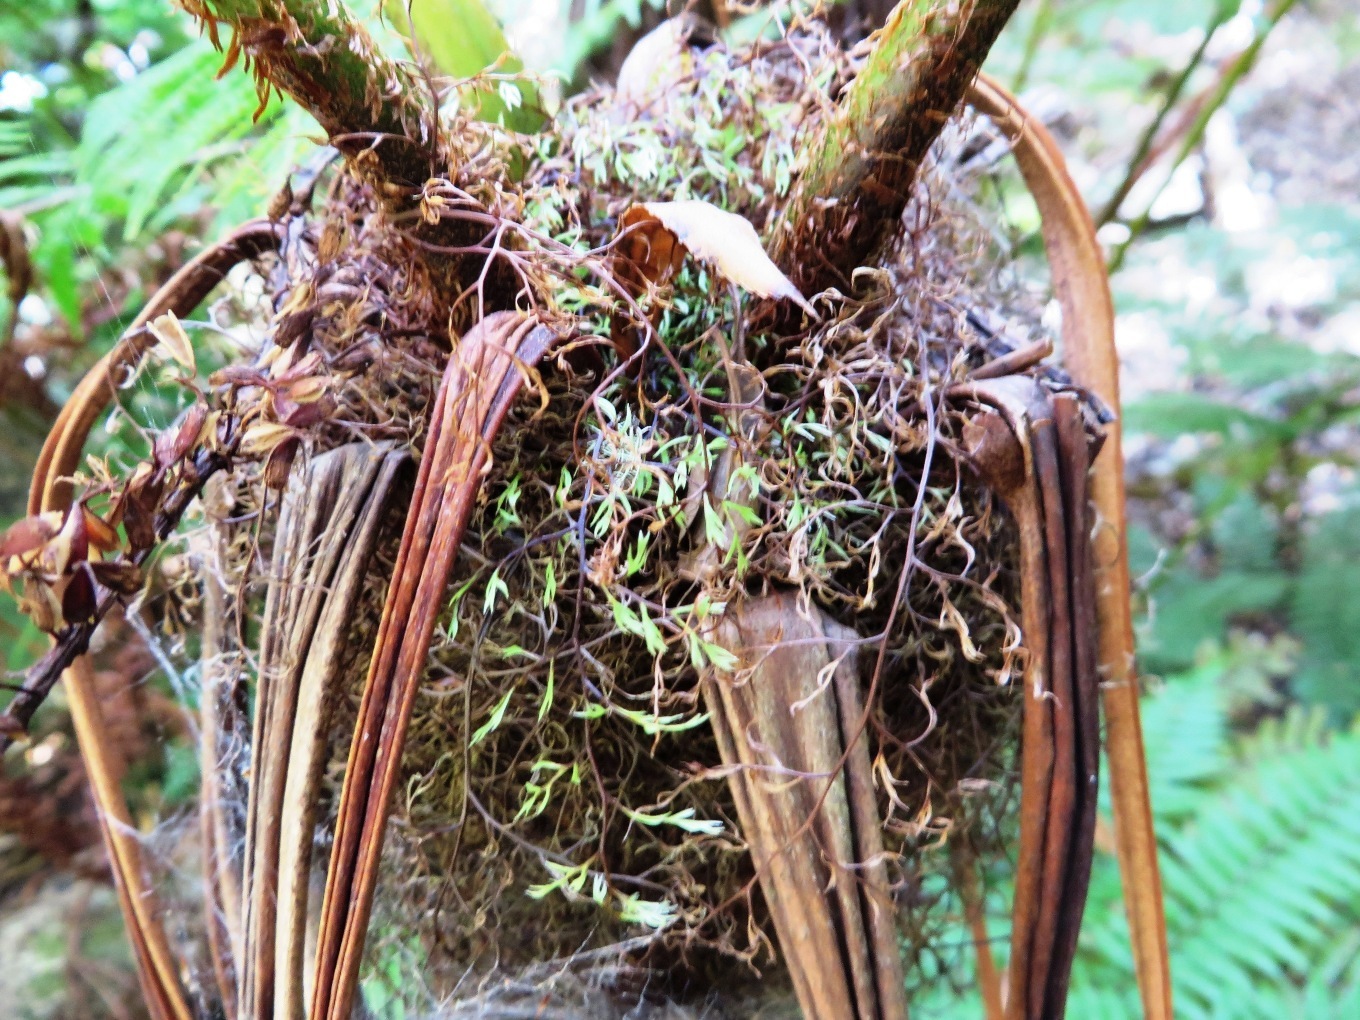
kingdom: Plantae
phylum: Tracheophyta
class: Polypodiopsida
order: Cyatheales
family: Cyatheaceae
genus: Gymnosphaera
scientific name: Gymnosphaera capensis
